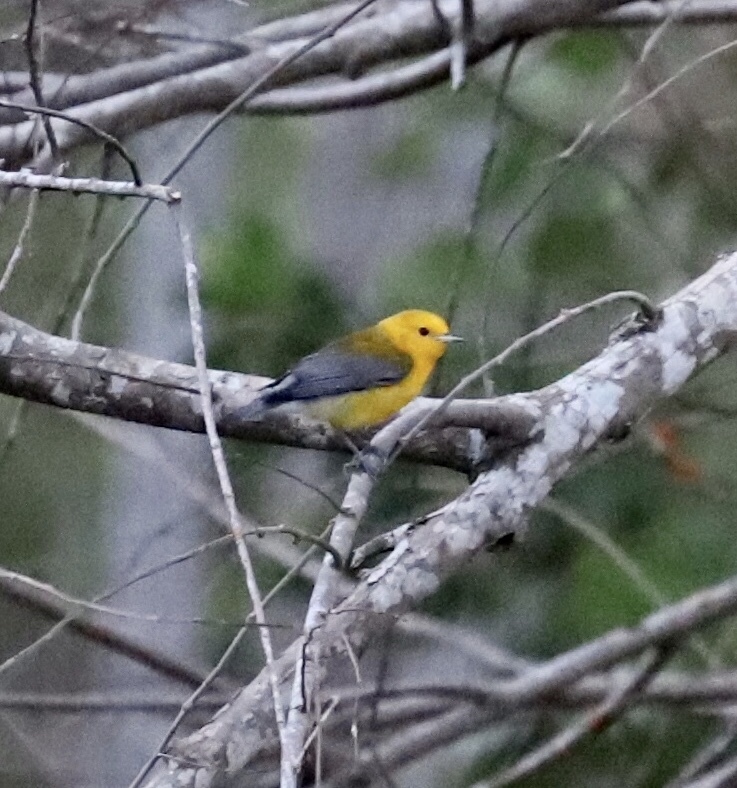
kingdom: Animalia
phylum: Chordata
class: Aves
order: Passeriformes
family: Parulidae
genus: Protonotaria
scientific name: Protonotaria citrea
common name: Prothonotary warbler
